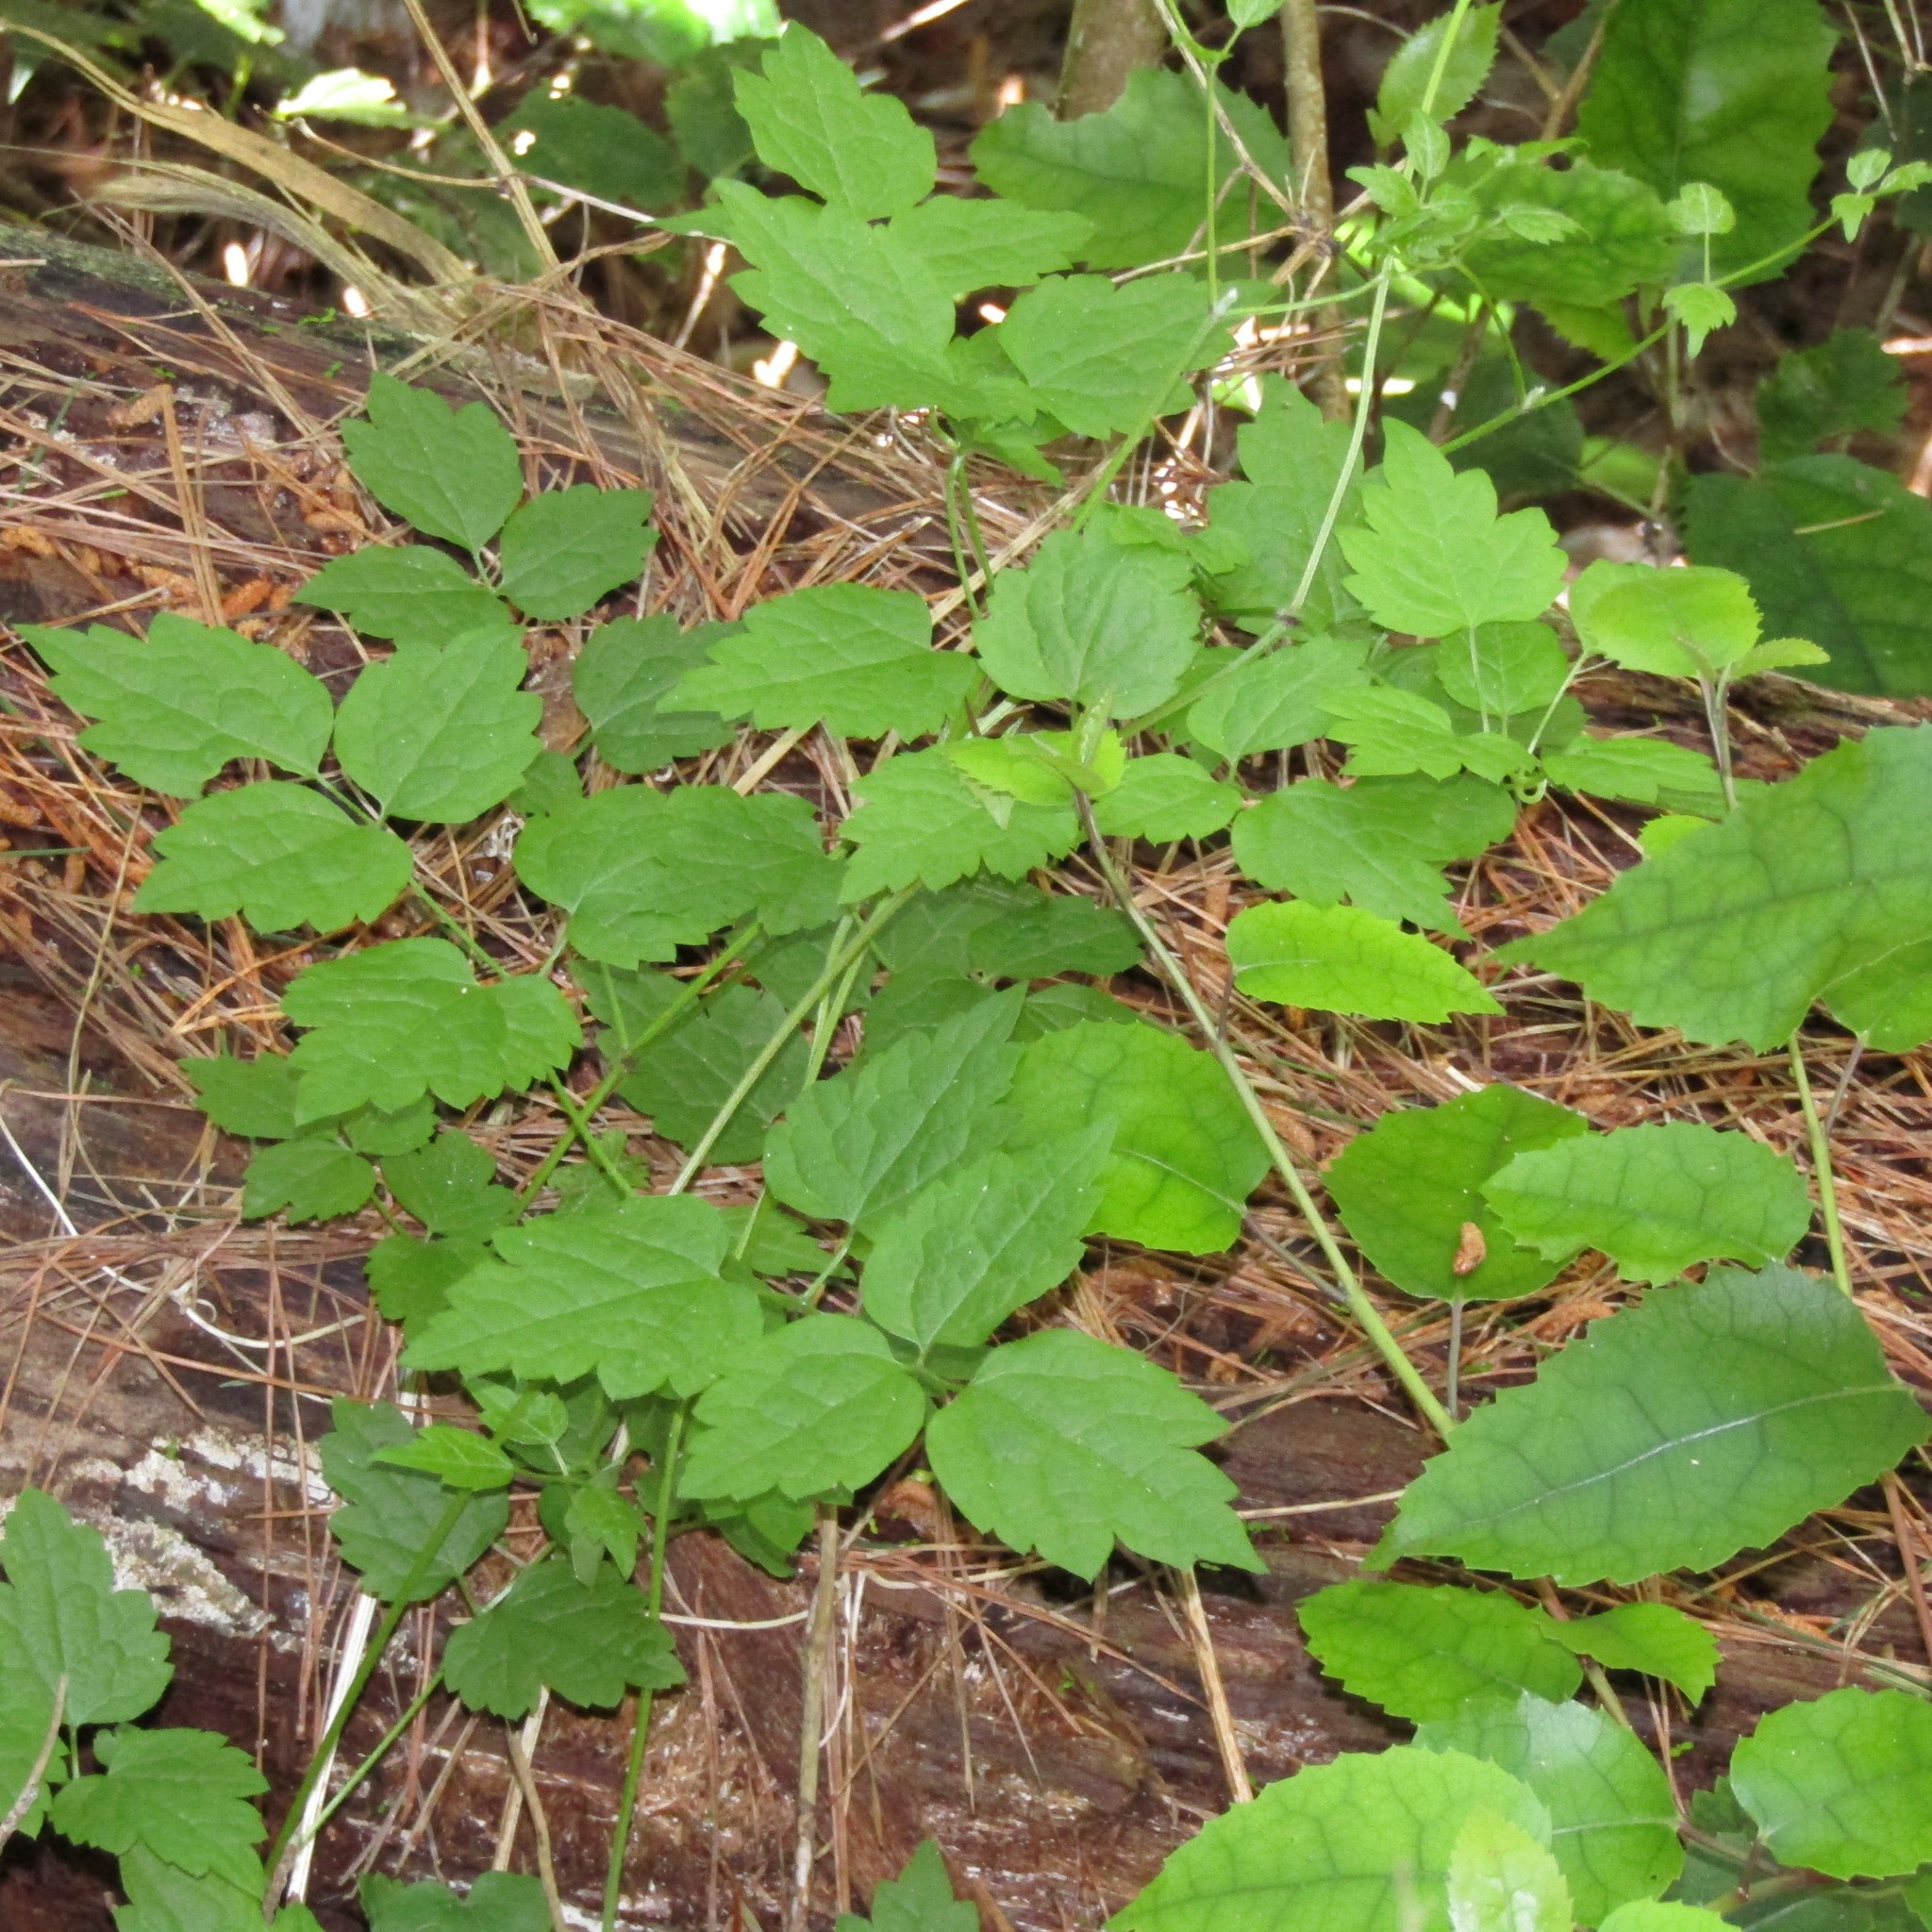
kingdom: Plantae
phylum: Tracheophyta
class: Magnoliopsida
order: Ranunculales
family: Ranunculaceae
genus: Clematis
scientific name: Clematis vitalba
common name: Evergreen clematis
